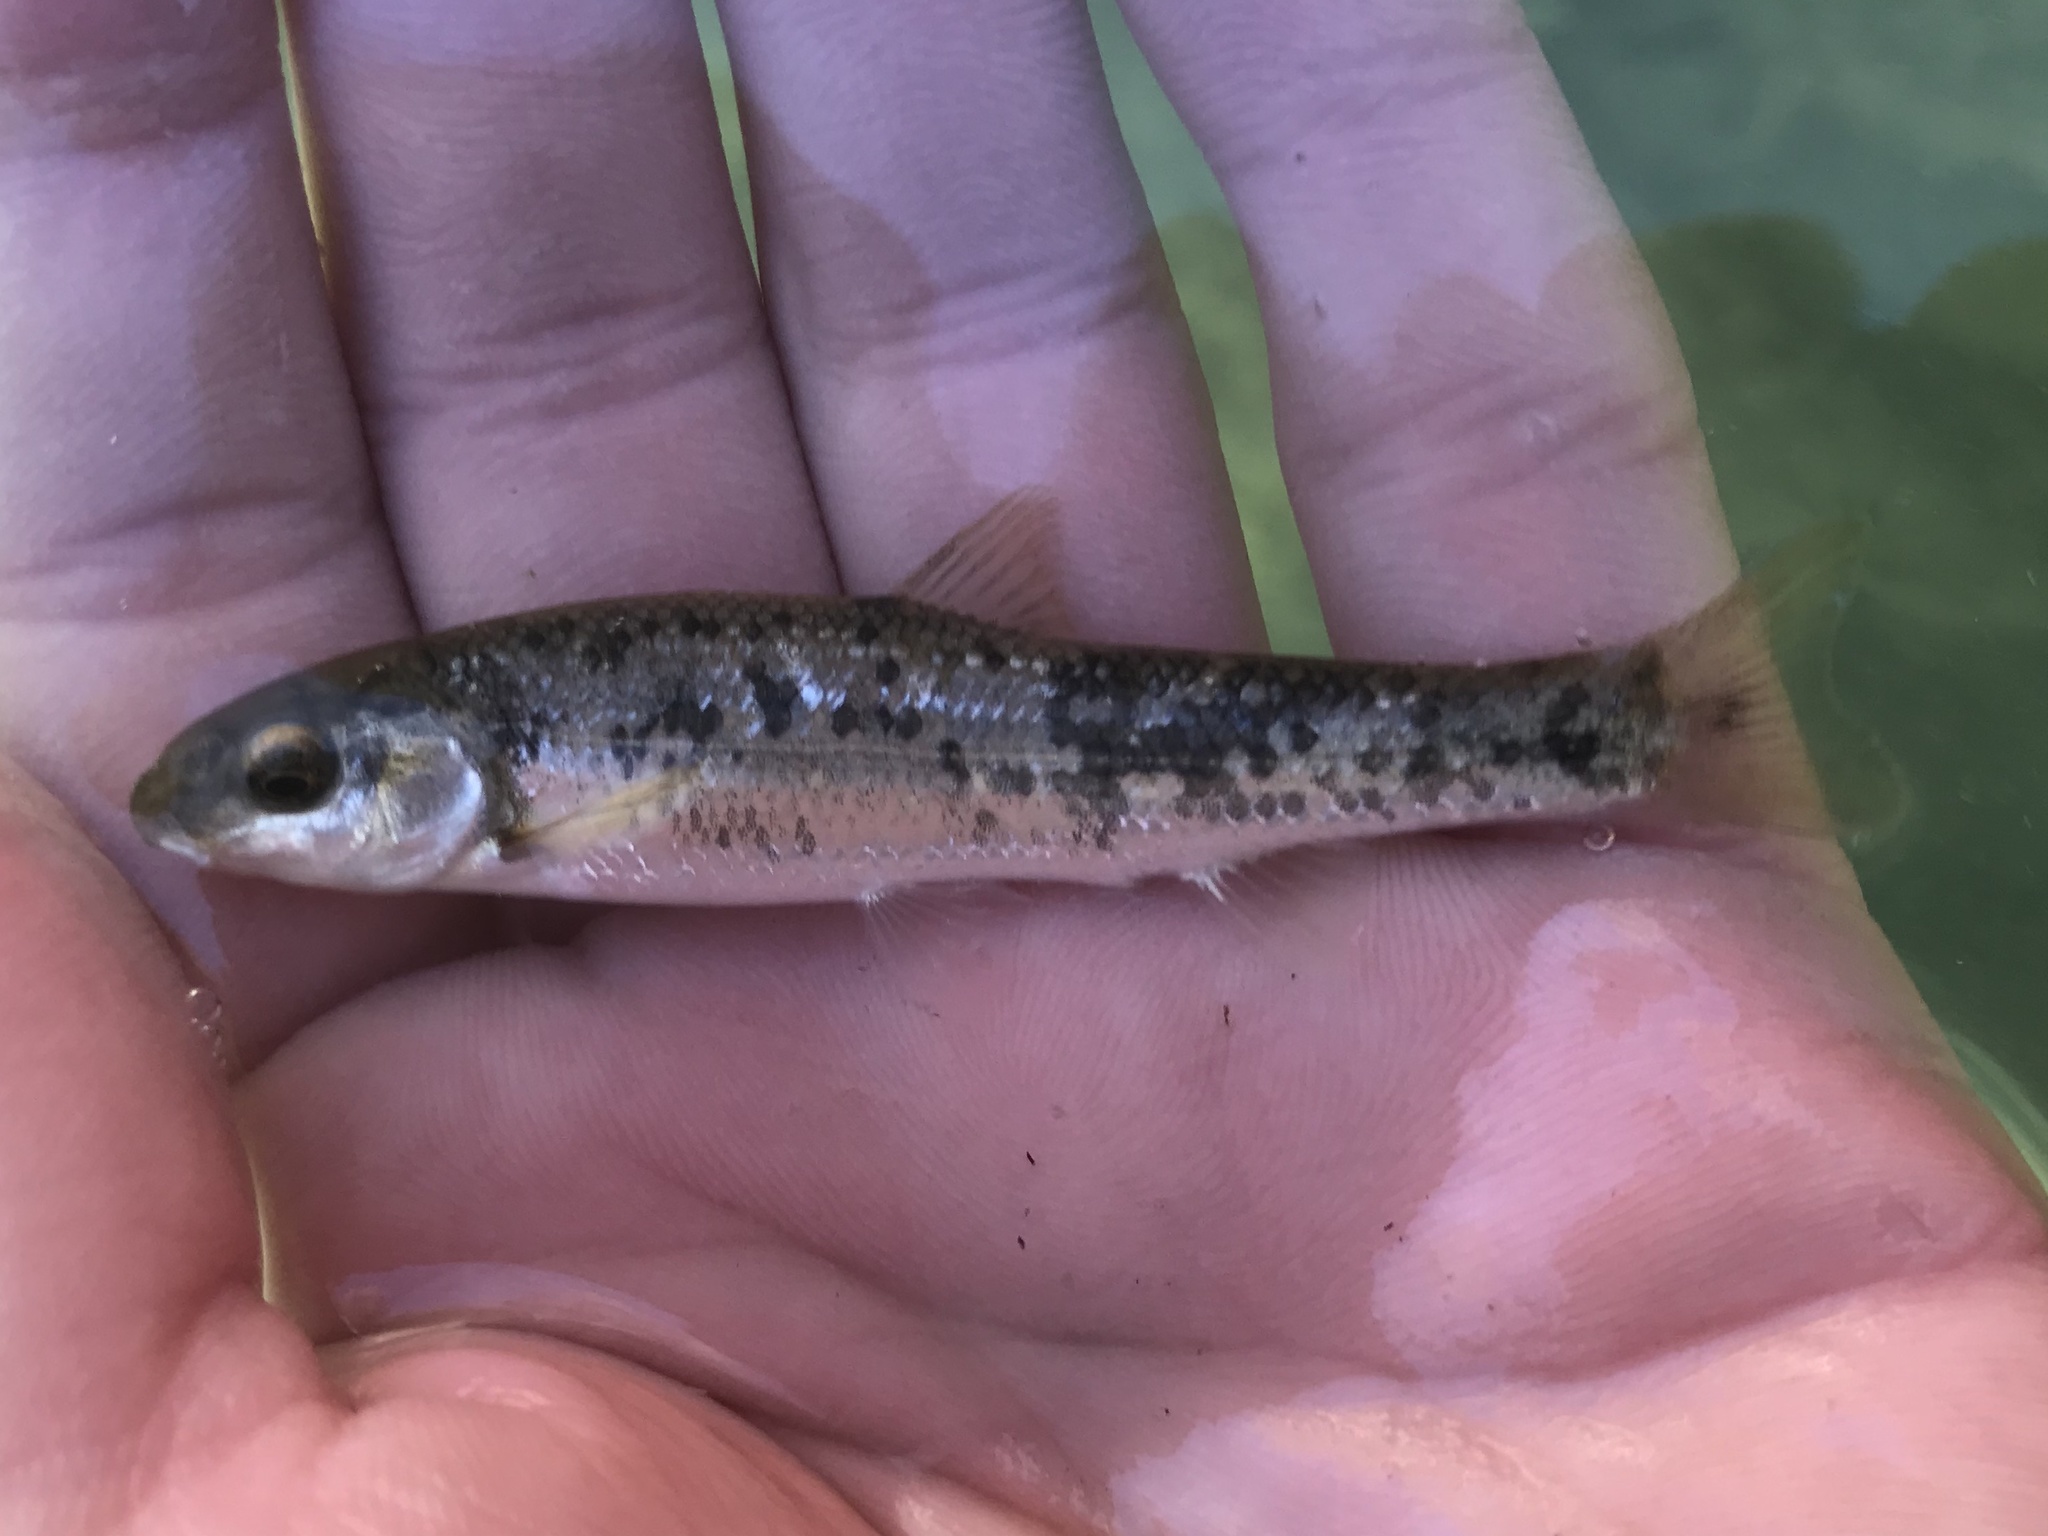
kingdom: Animalia
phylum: Chordata
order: Cypriniformes
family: Cyprinidae
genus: Campostoma
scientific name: Campostoma anomalum
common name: Central stoneroller
